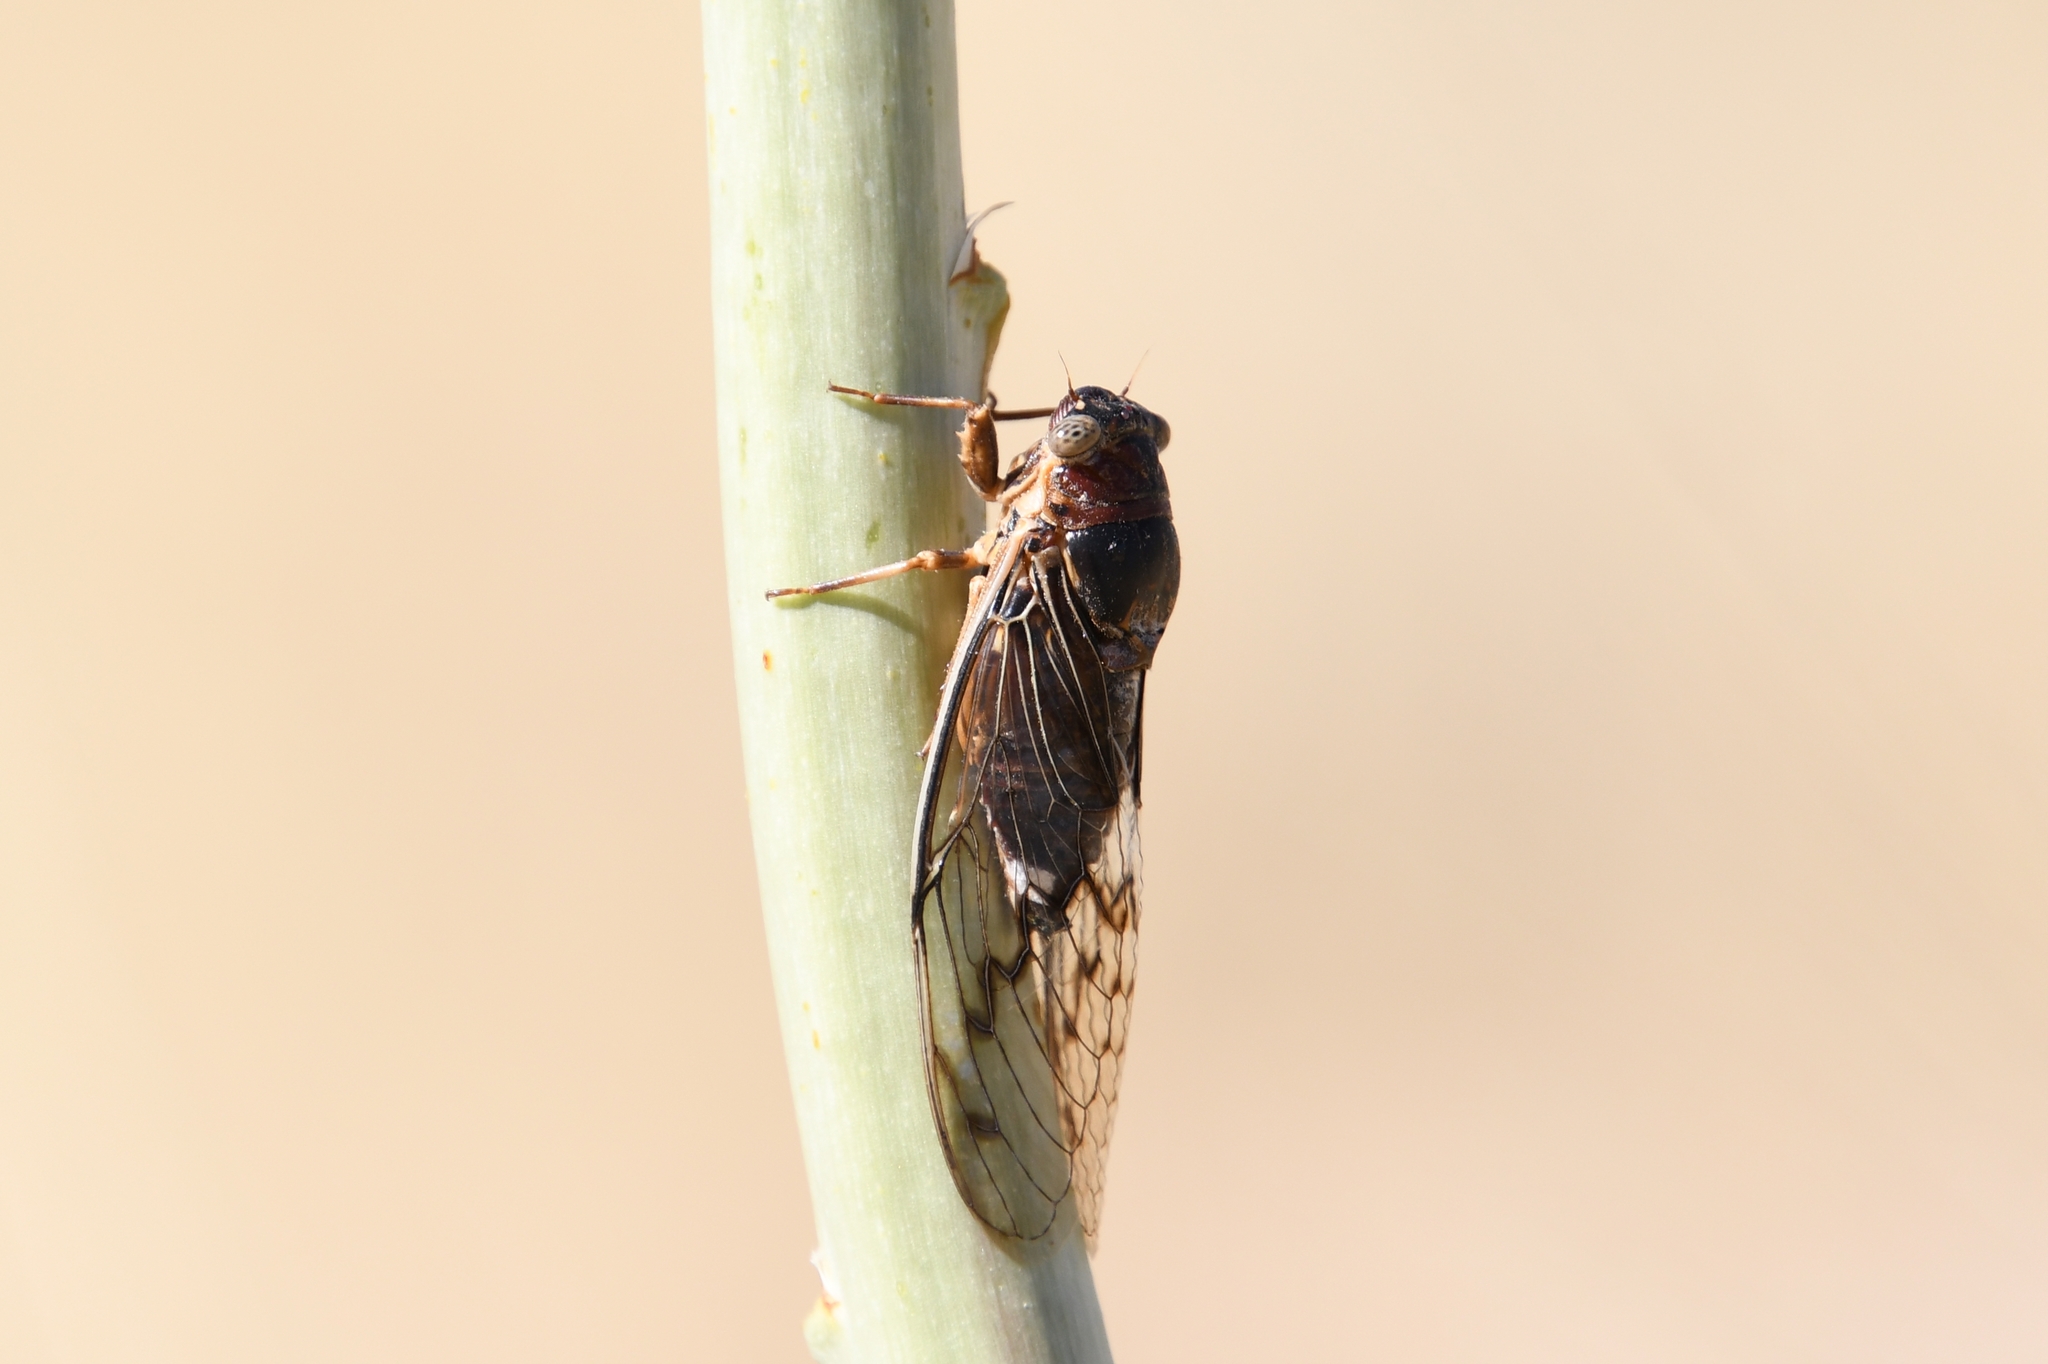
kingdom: Animalia
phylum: Arthropoda
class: Insecta
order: Hemiptera
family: Cicadidae
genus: Diceroprocta
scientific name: Diceroprocta swalei
